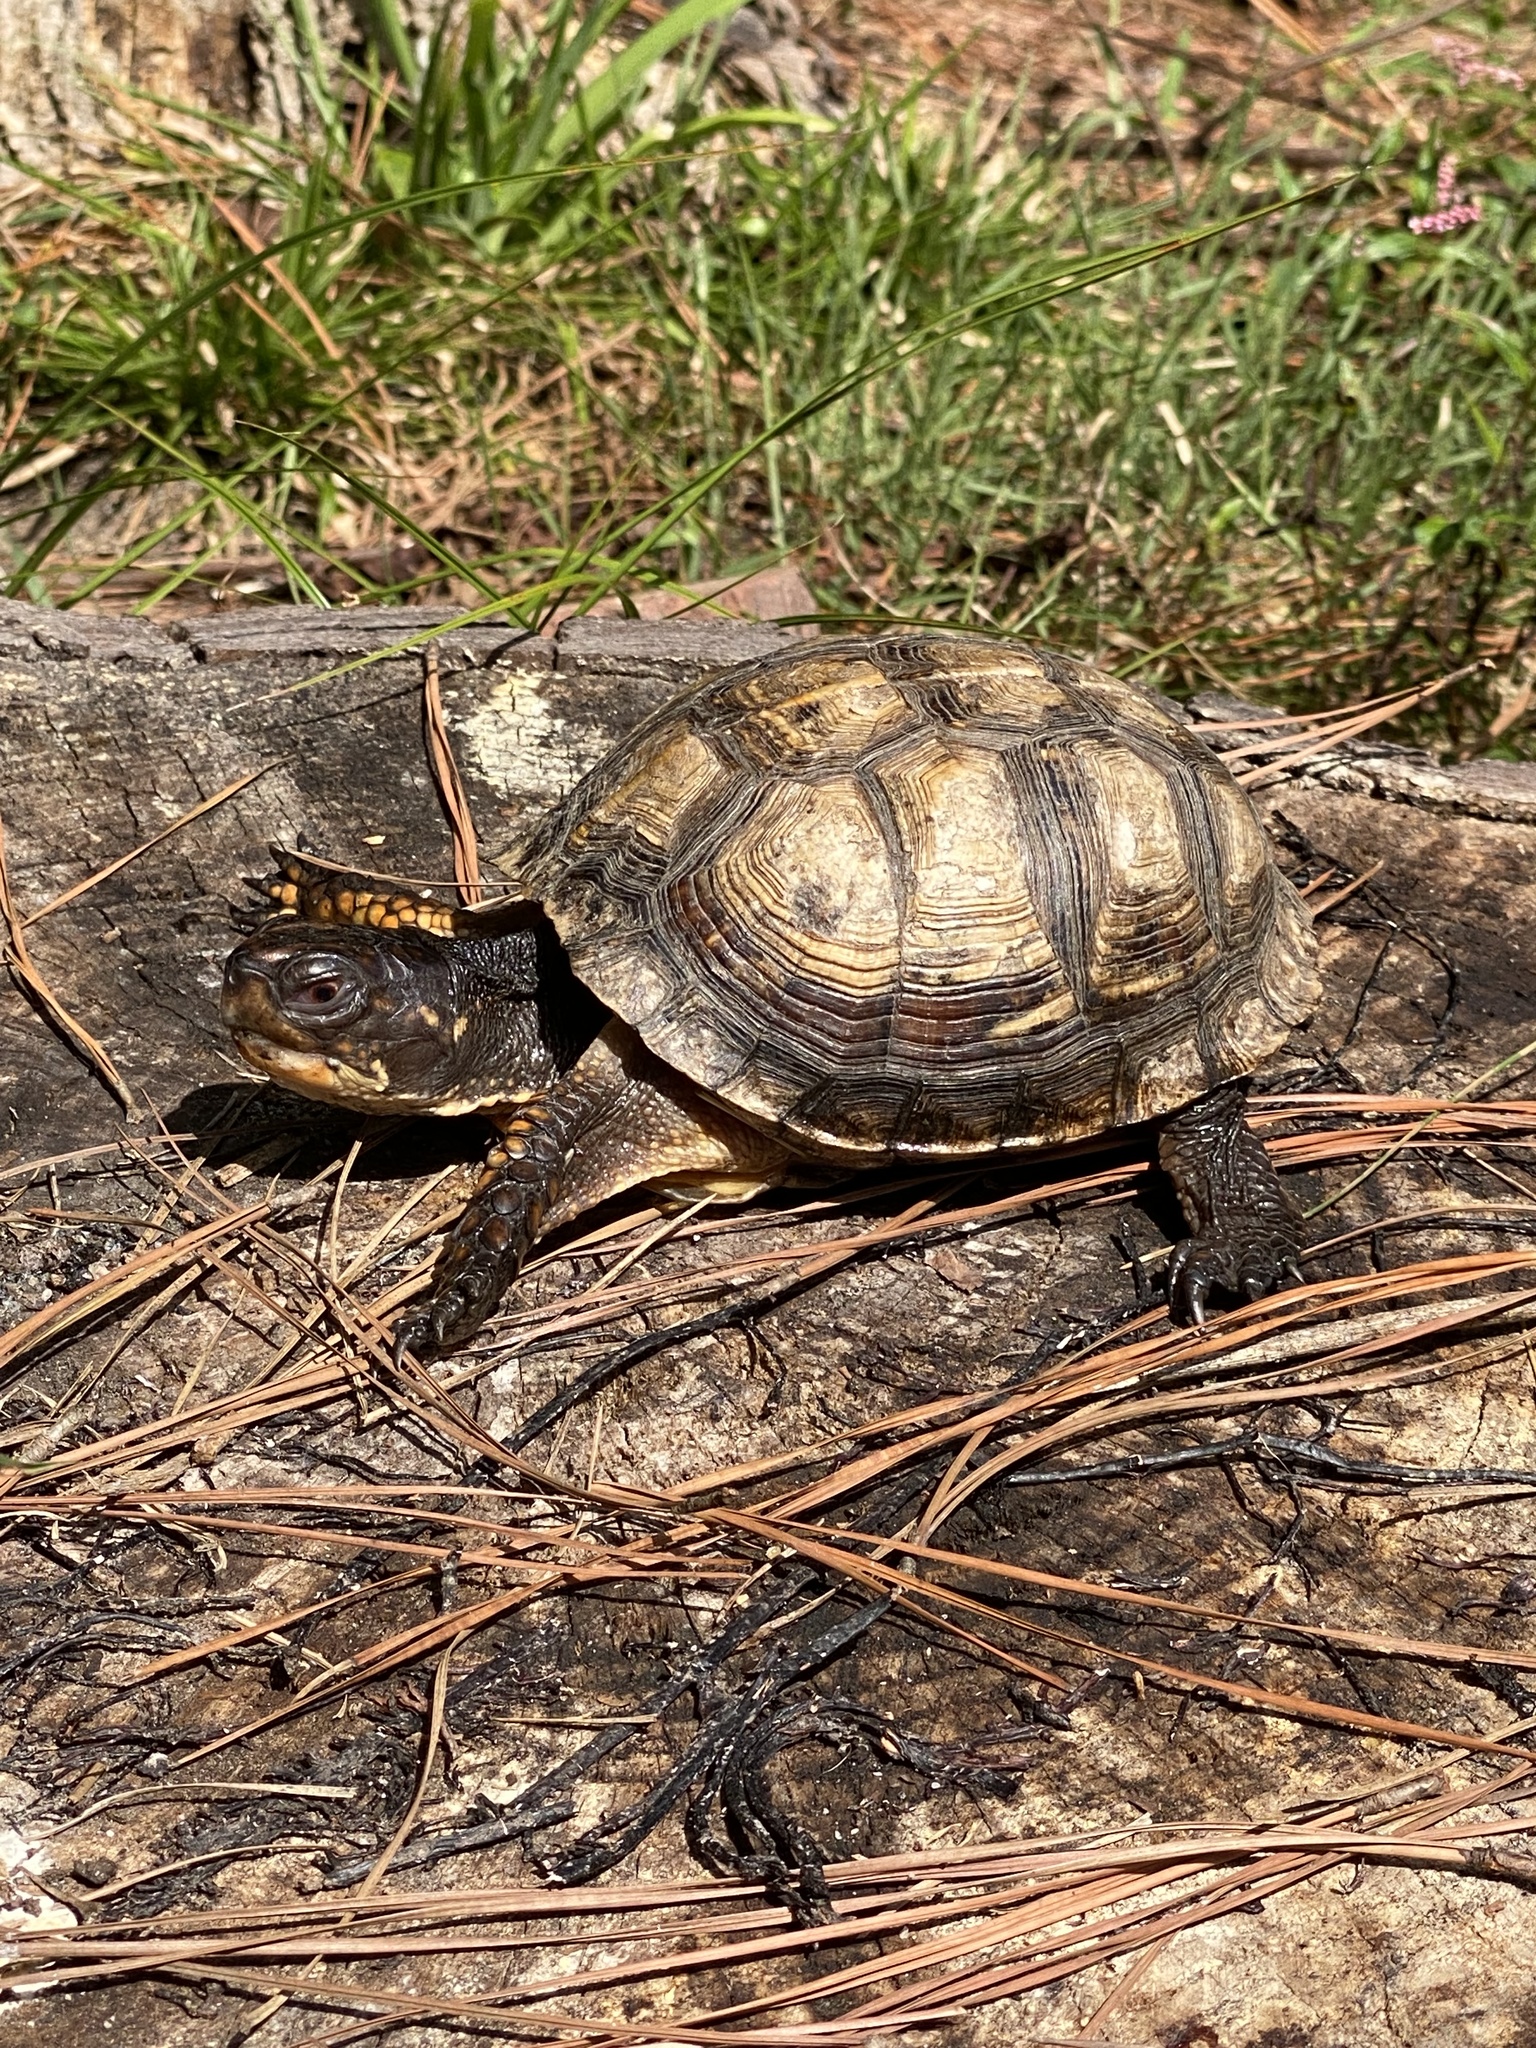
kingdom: Animalia
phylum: Chordata
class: Testudines
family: Emydidae
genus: Terrapene
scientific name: Terrapene carolina
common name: Common box turtle
